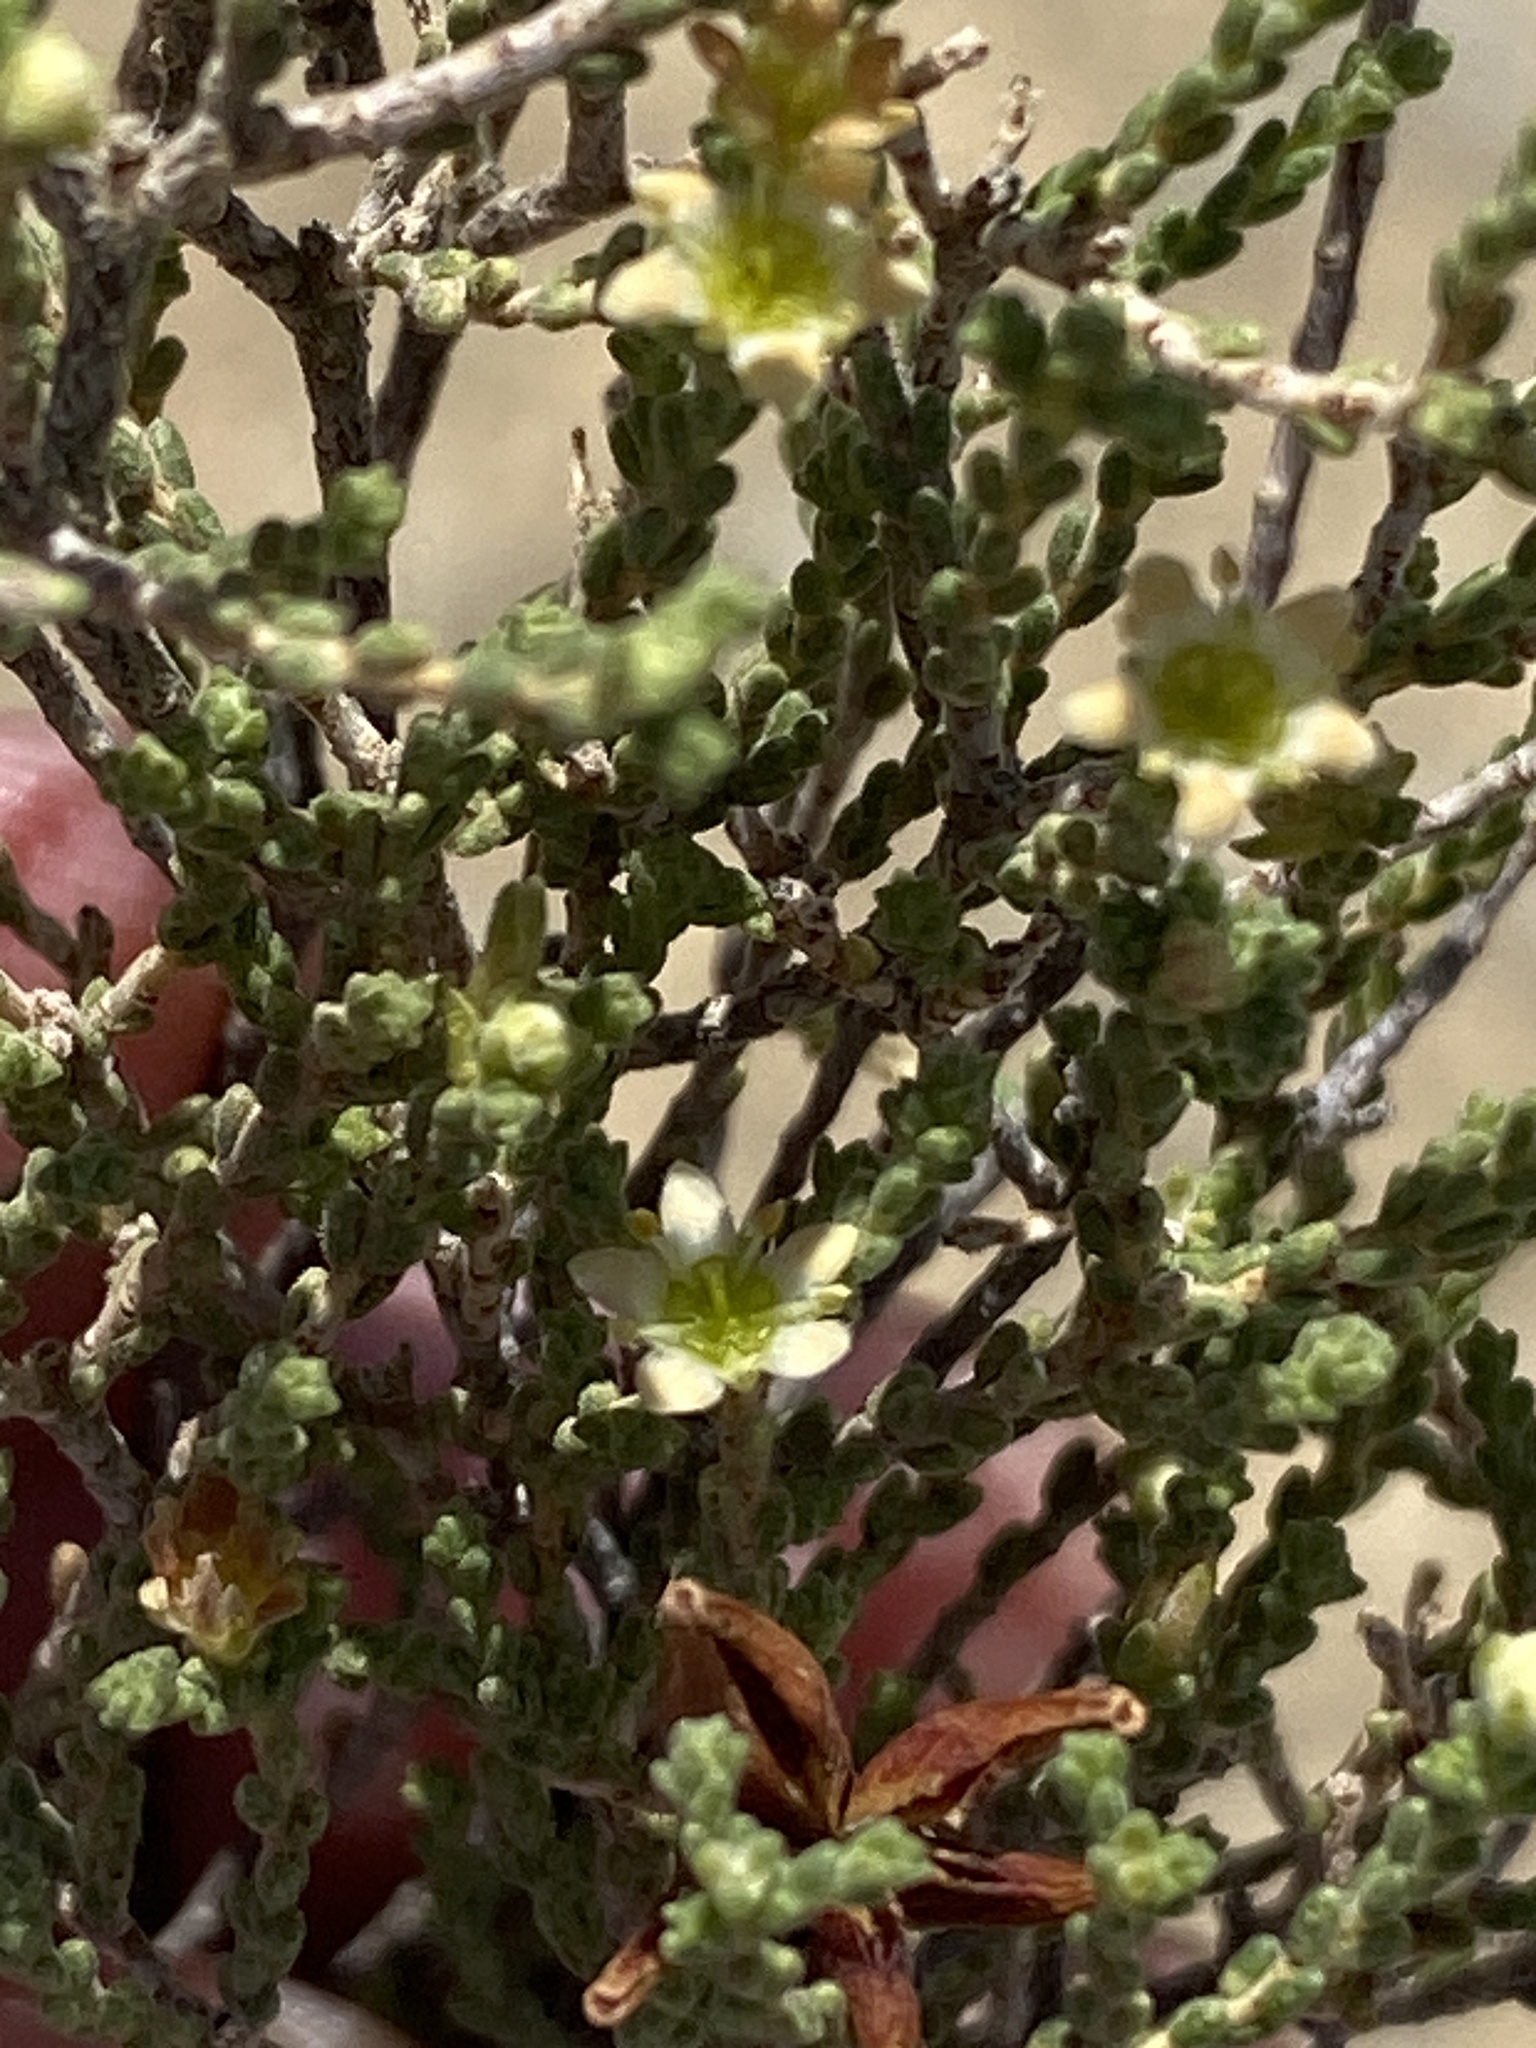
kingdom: Plantae
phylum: Tracheophyta
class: Magnoliopsida
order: Sapindales
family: Rutaceae
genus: Diosma
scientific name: Diosma ramosissima
